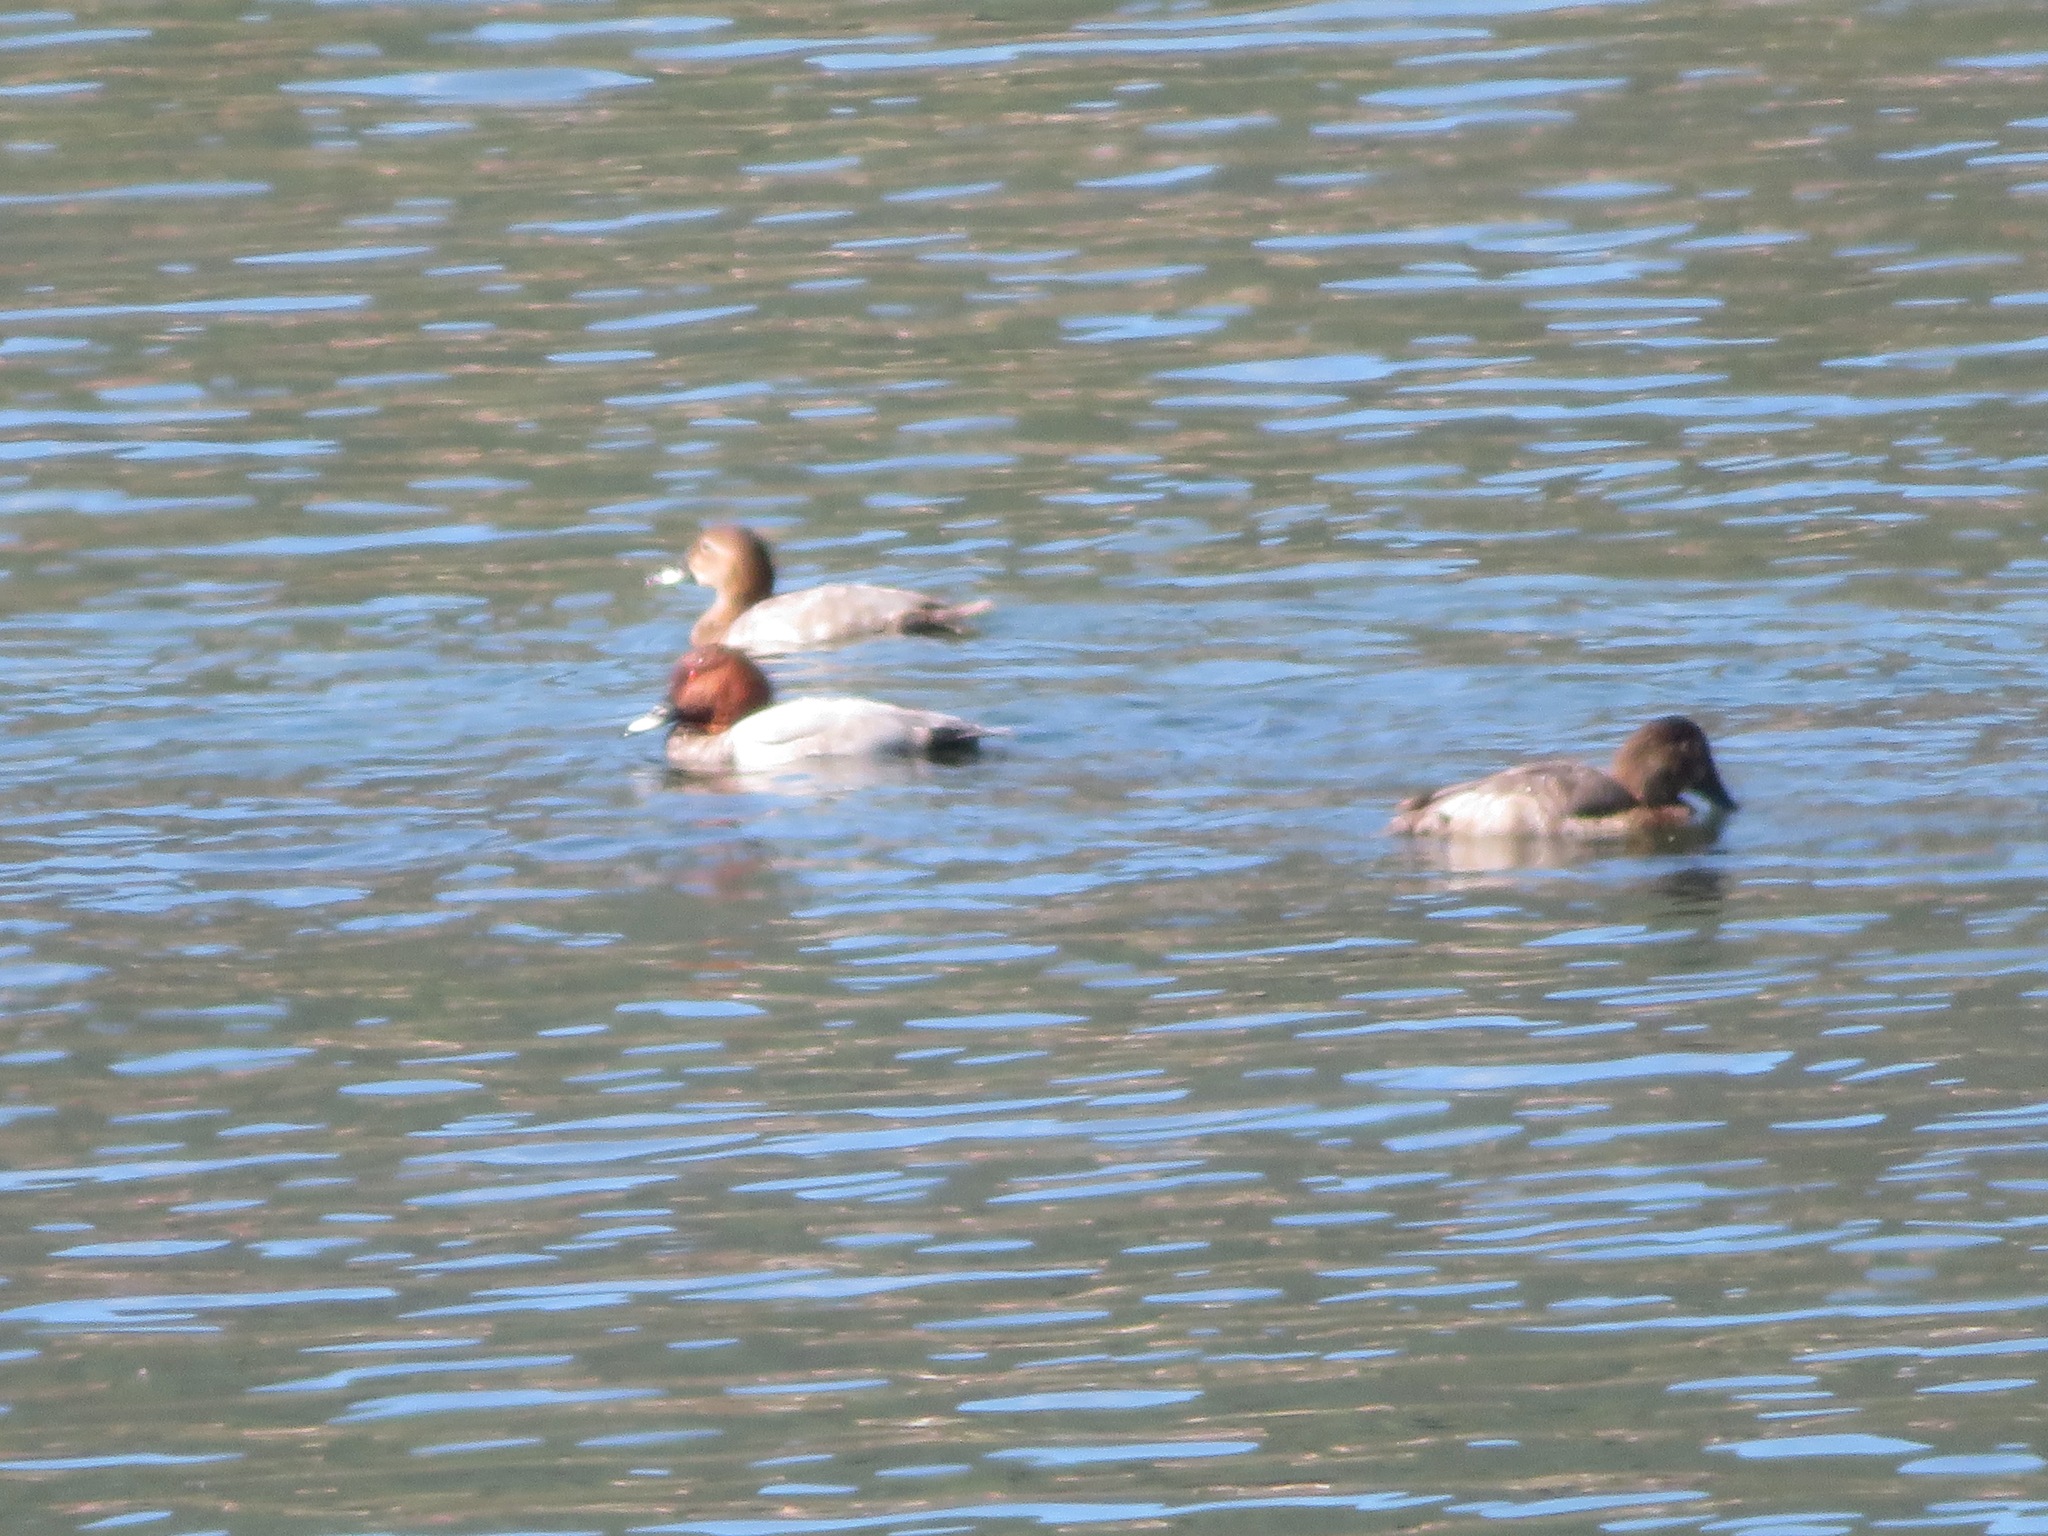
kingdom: Animalia
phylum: Chordata
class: Aves
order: Anseriformes
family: Anatidae
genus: Aythya
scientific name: Aythya ferina
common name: Common pochard
